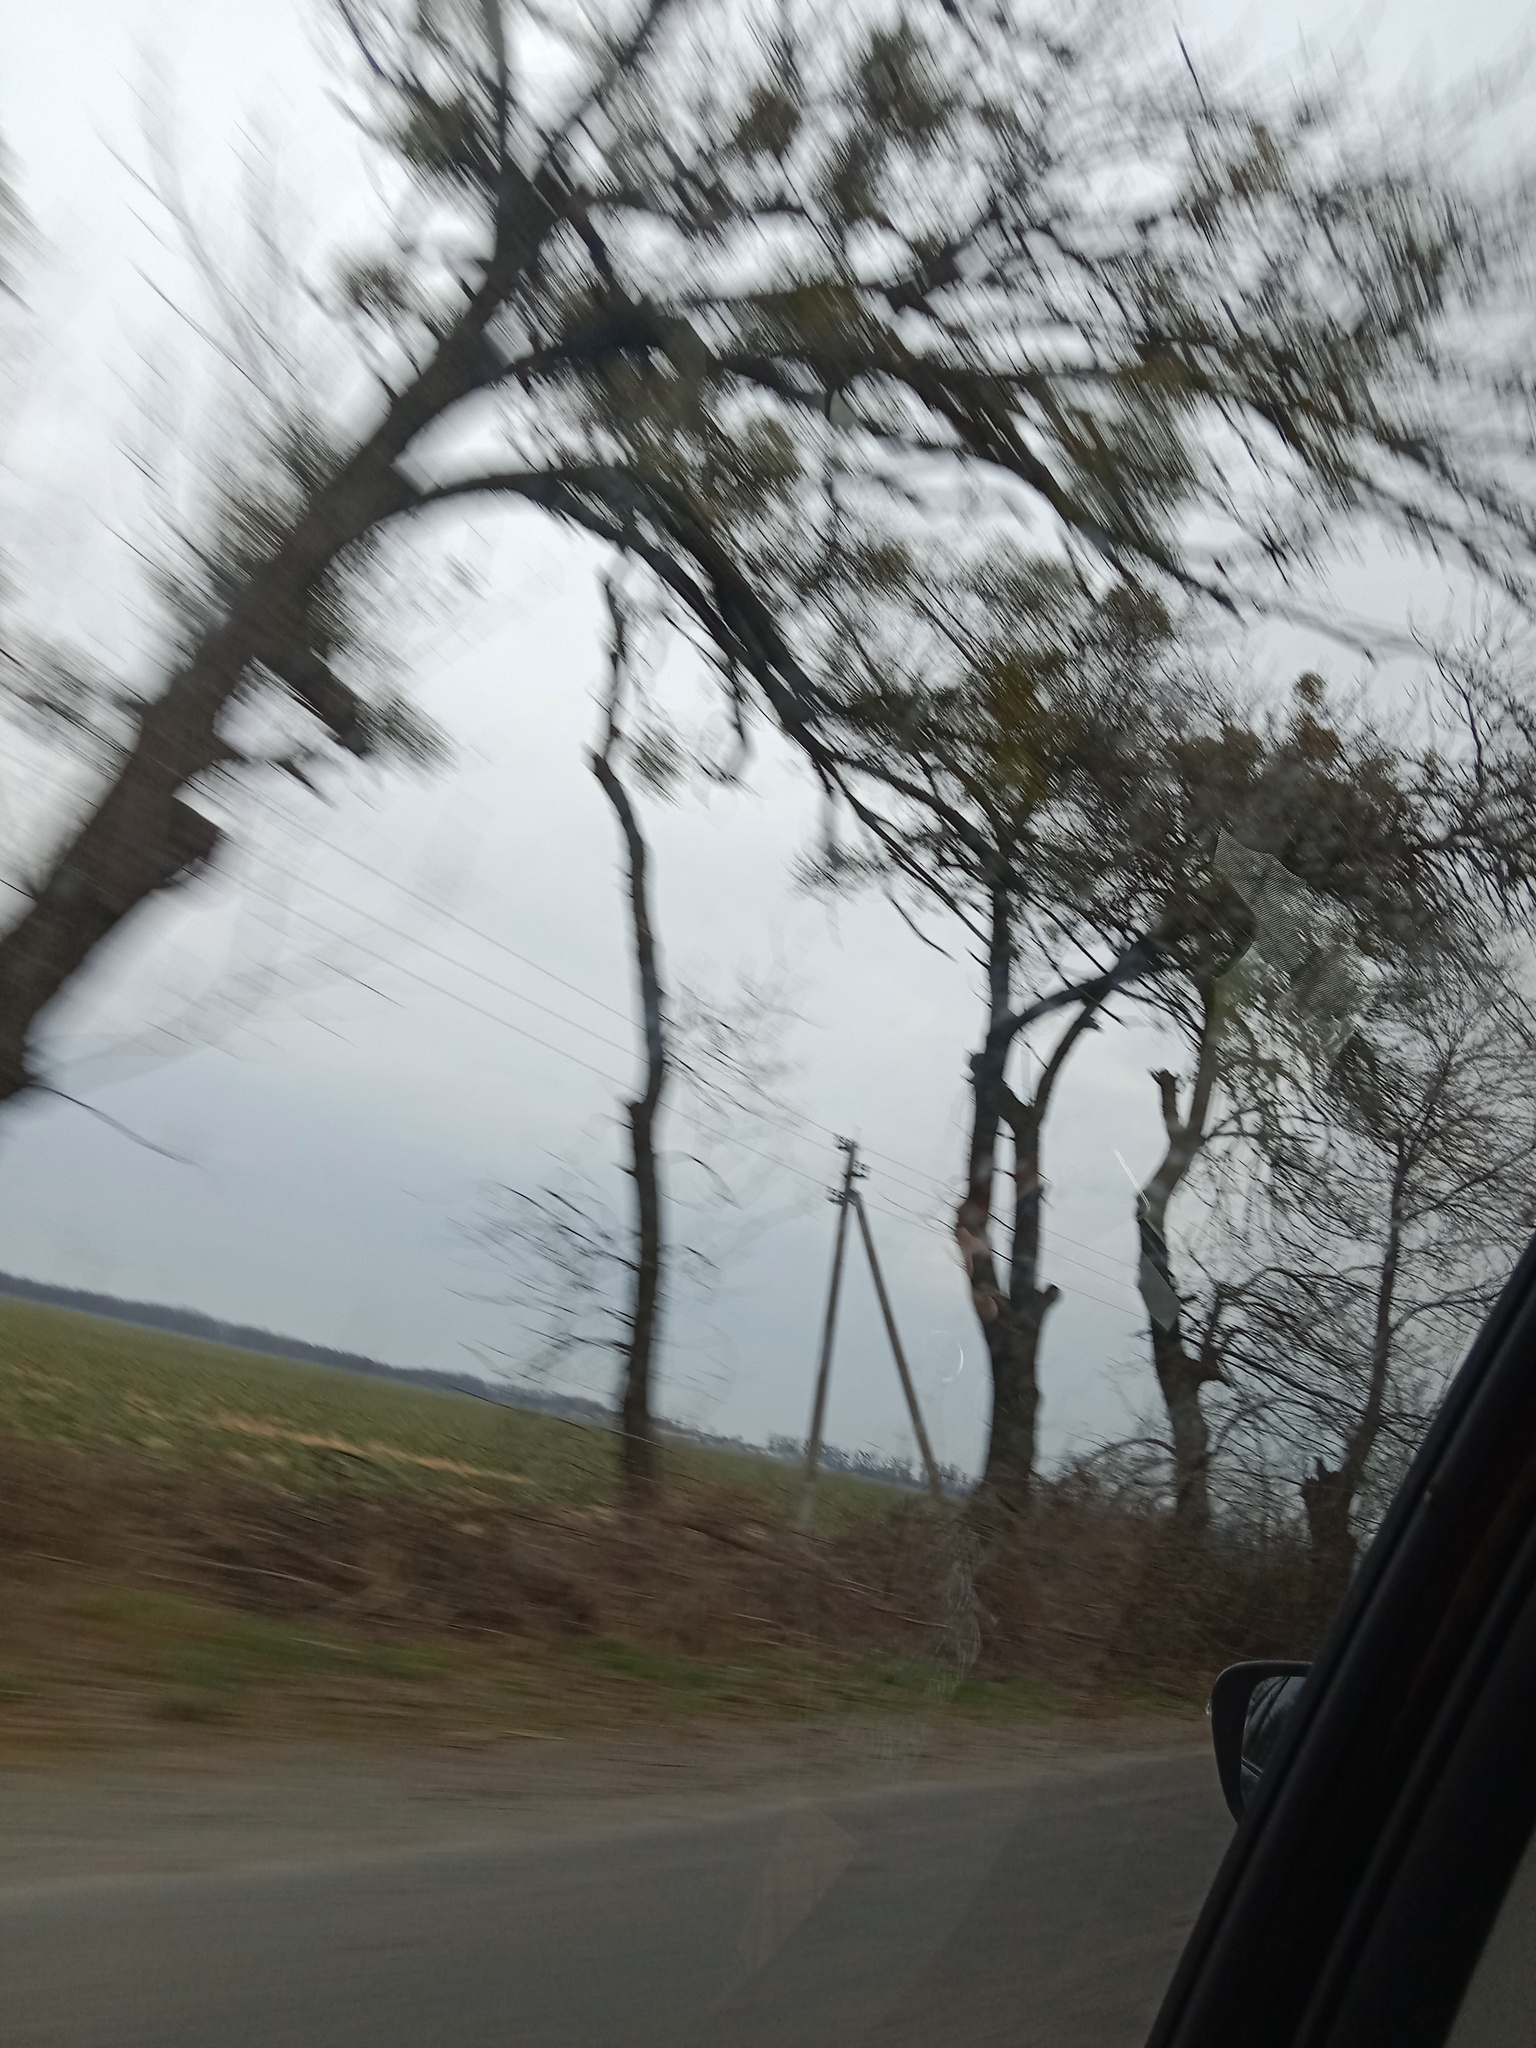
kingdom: Plantae
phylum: Tracheophyta
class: Magnoliopsida
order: Santalales
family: Viscaceae
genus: Viscum
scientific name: Viscum album
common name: Mistletoe
